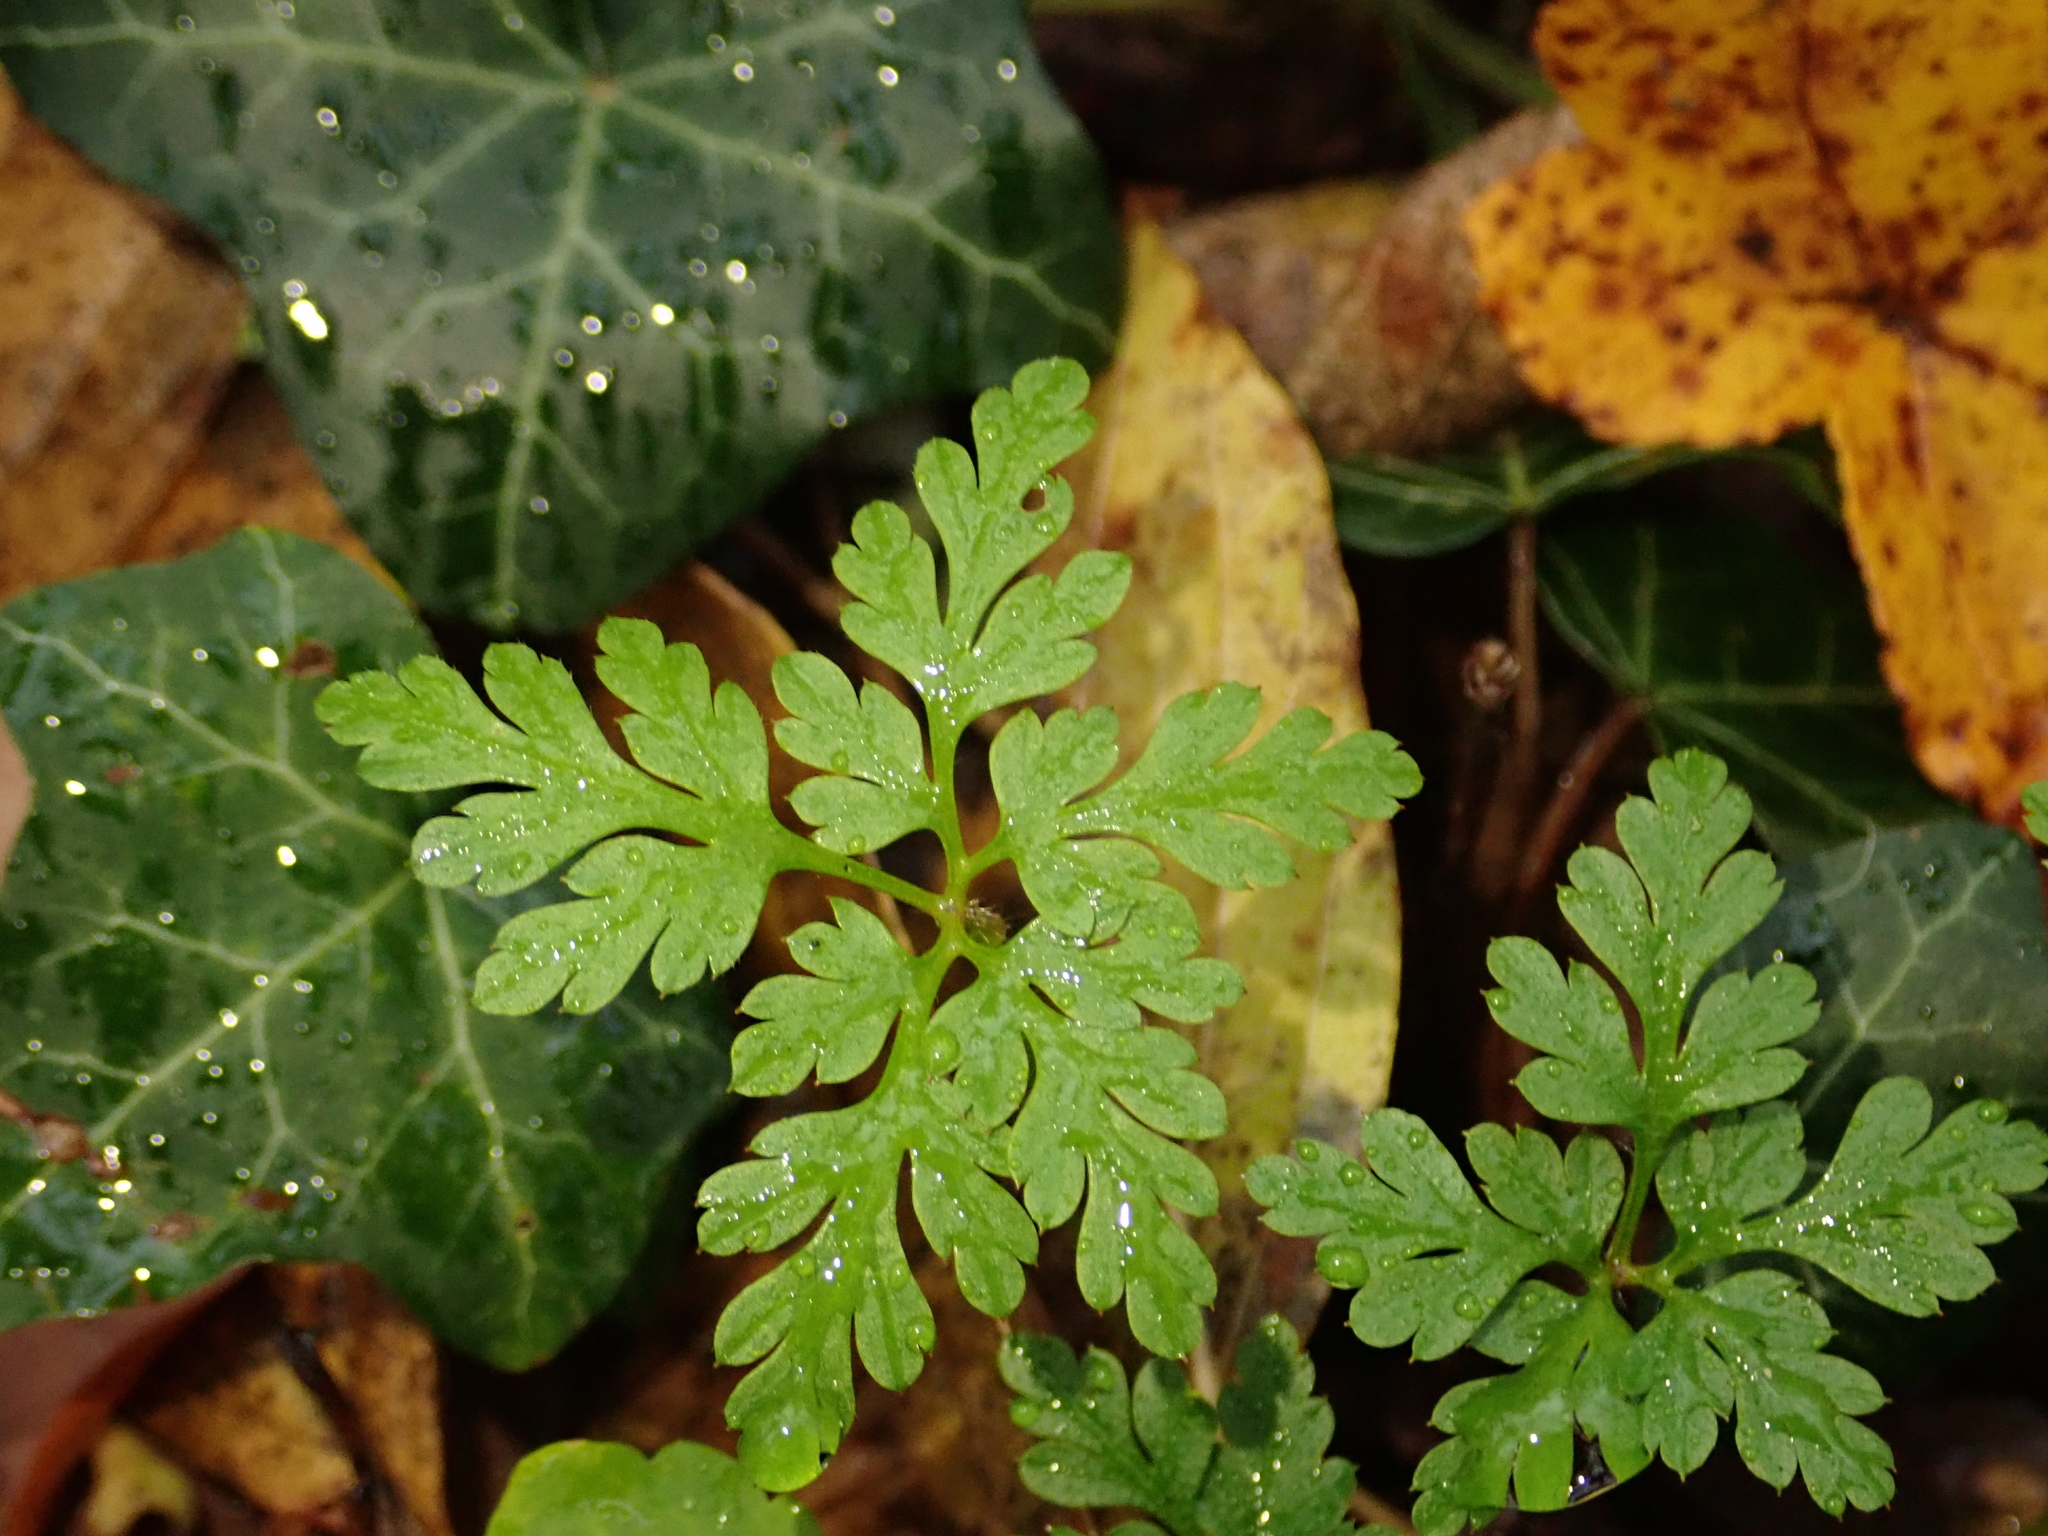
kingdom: Plantae
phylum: Tracheophyta
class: Magnoliopsida
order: Geraniales
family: Geraniaceae
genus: Geranium
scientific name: Geranium robertianum
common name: Herb-robert
